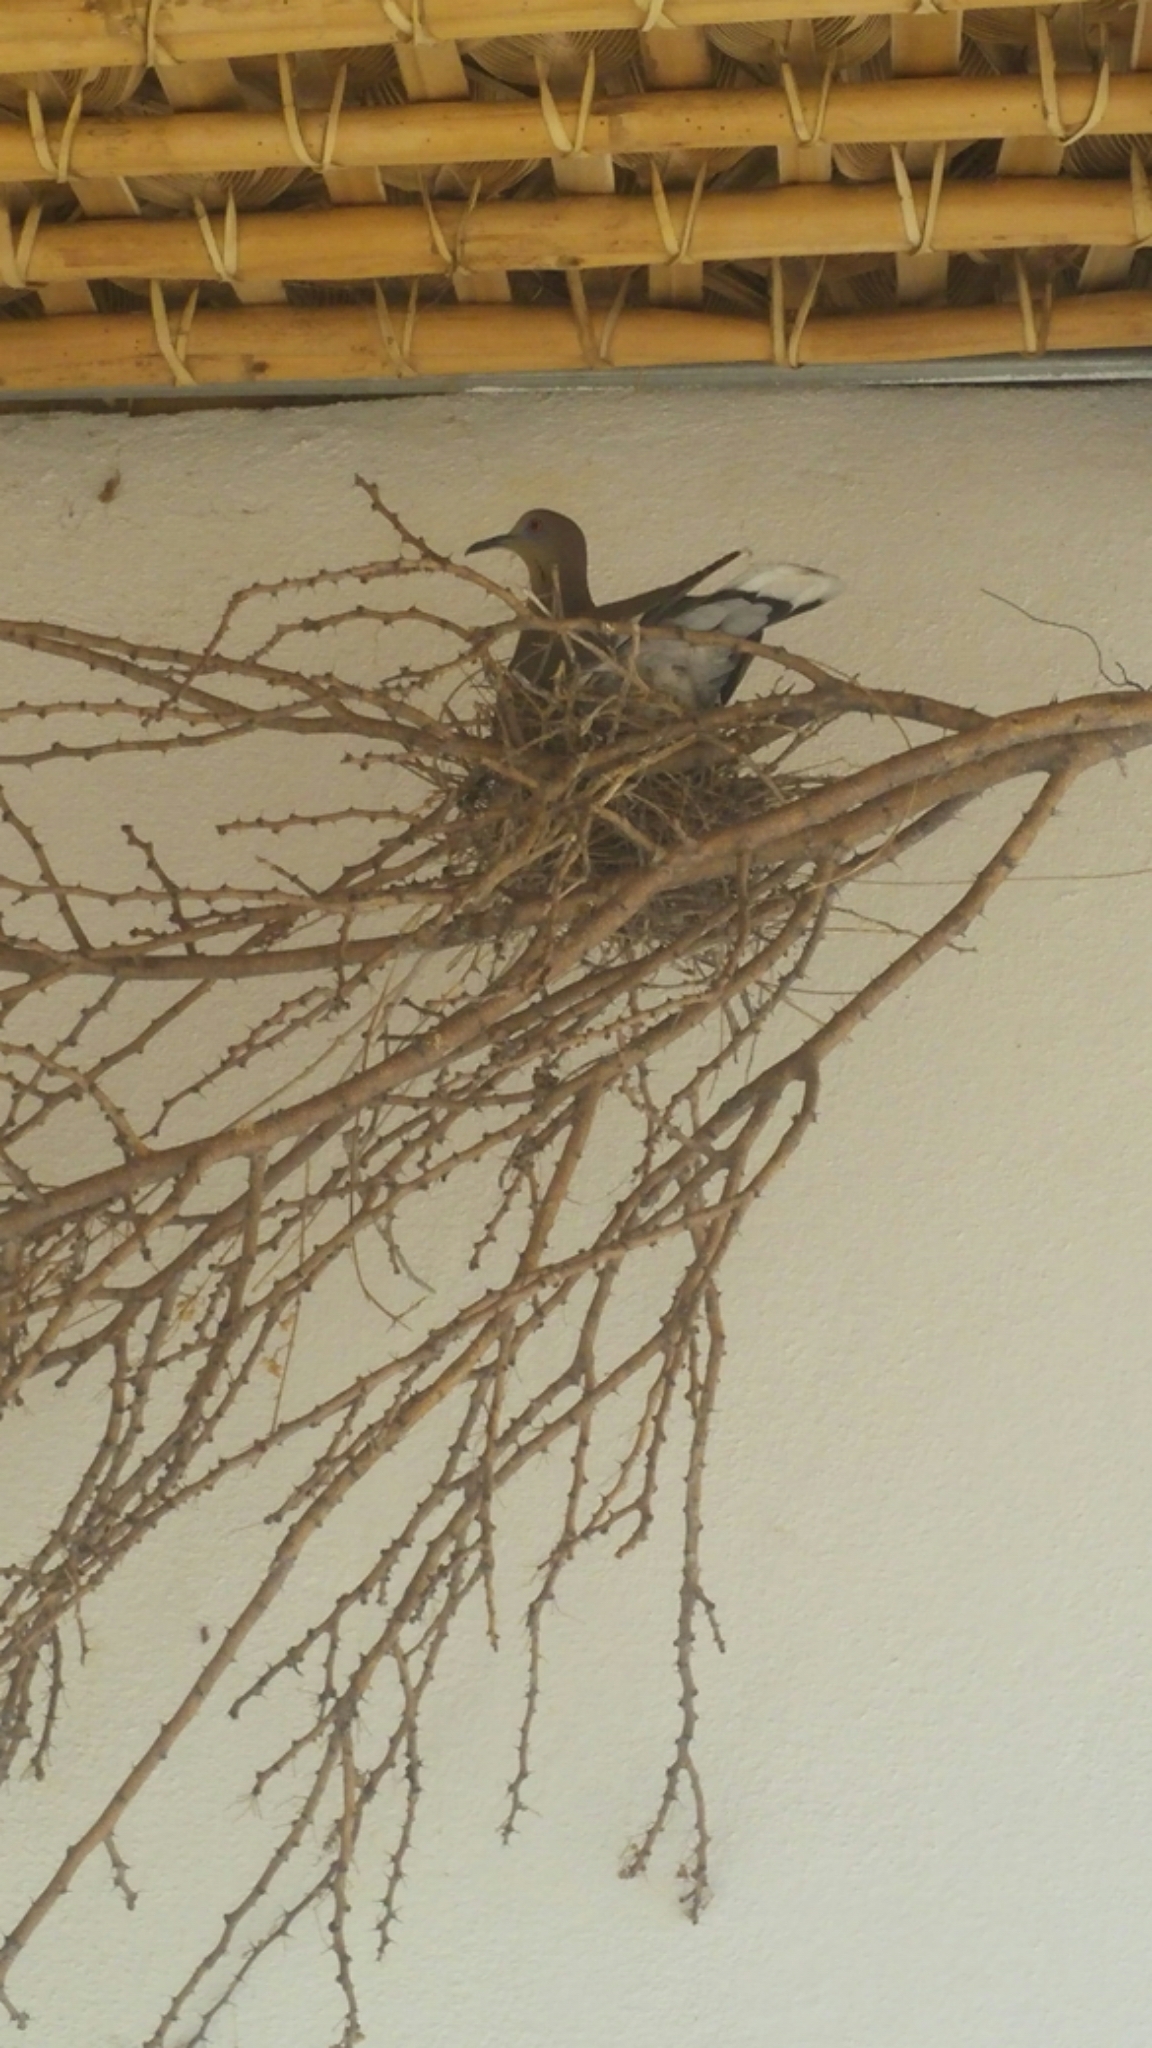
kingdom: Animalia
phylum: Chordata
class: Aves
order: Columbiformes
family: Columbidae
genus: Zenaida
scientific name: Zenaida asiatica
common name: White-winged dove
